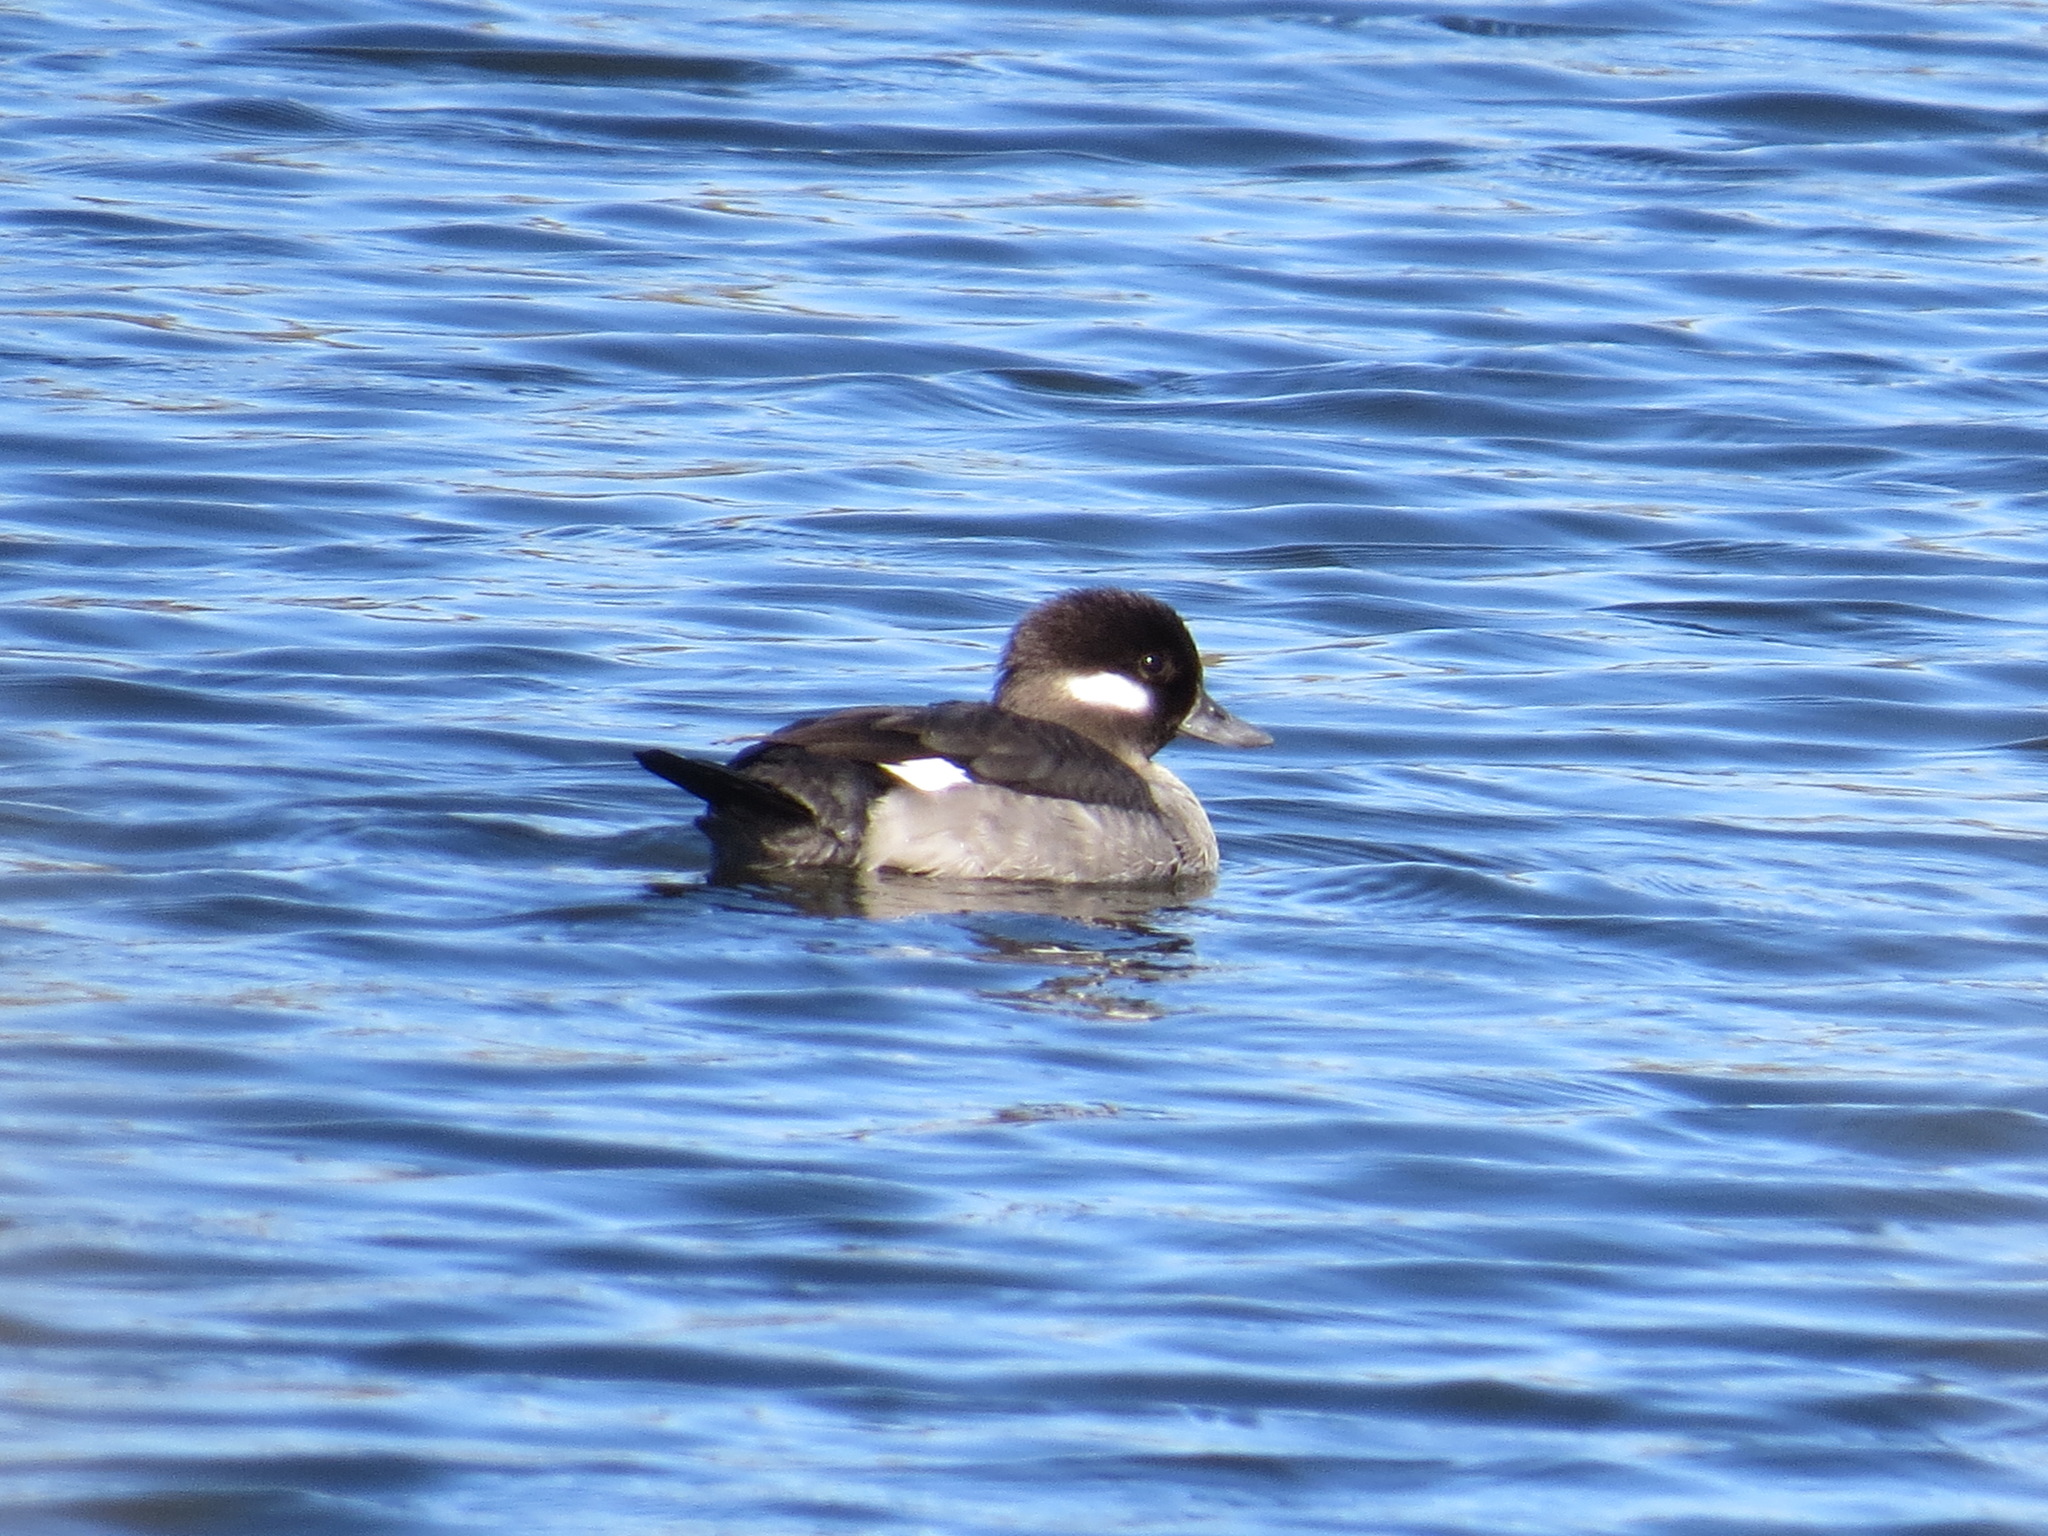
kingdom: Animalia
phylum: Chordata
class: Aves
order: Anseriformes
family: Anatidae
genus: Bucephala
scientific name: Bucephala albeola
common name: Bufflehead
